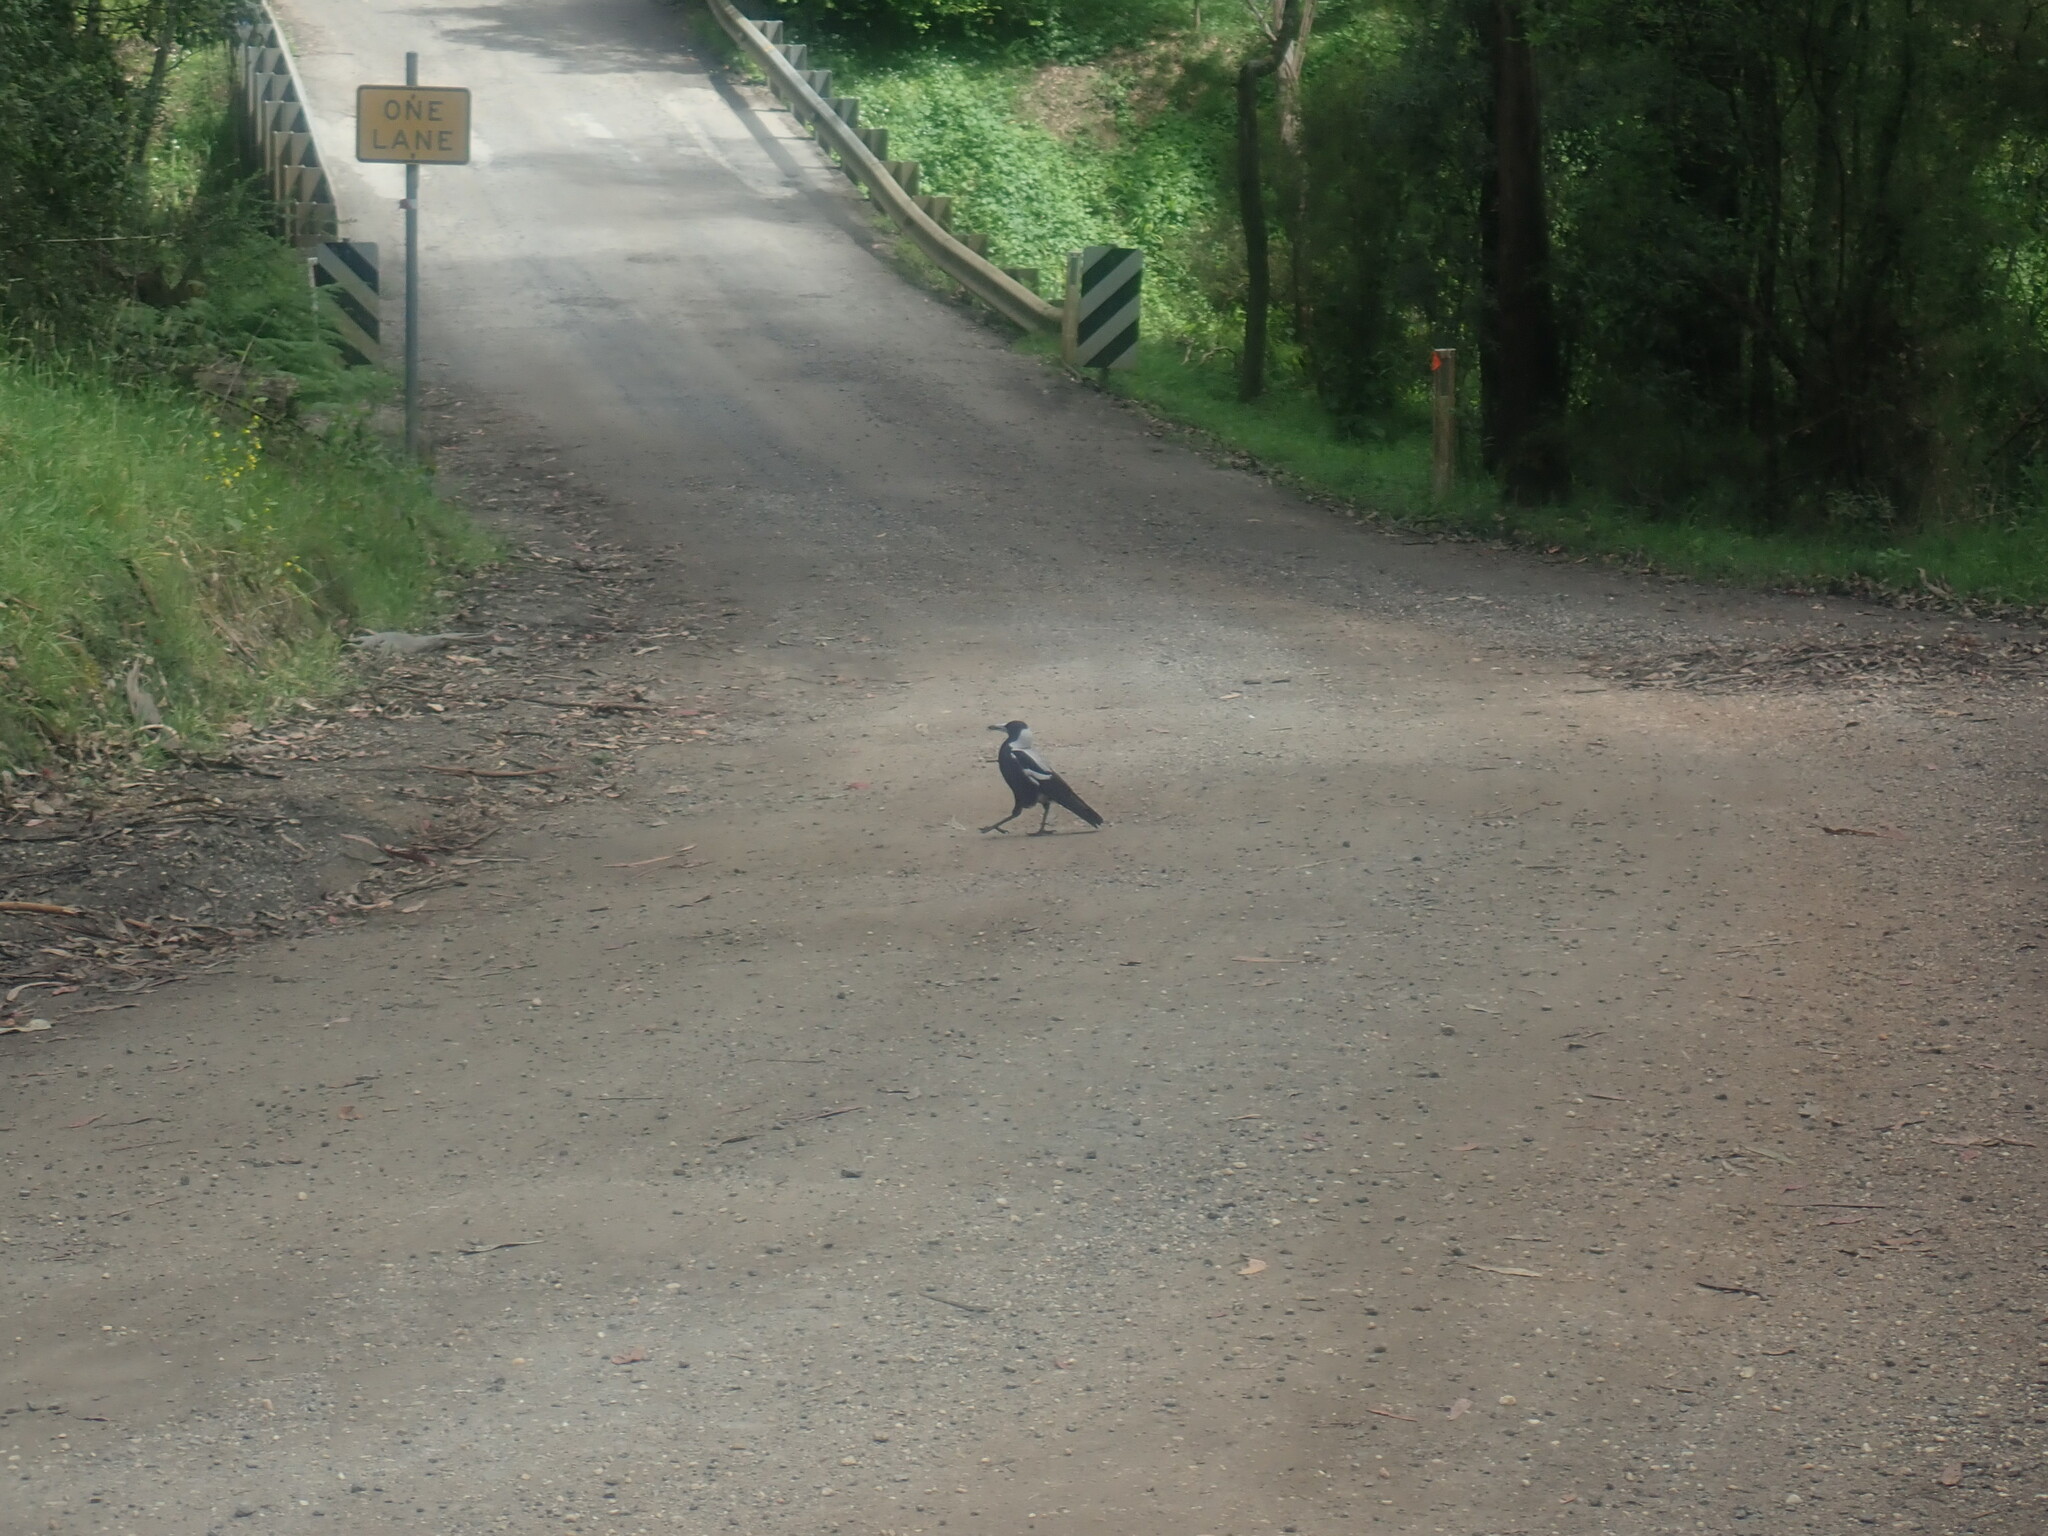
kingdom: Animalia
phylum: Chordata
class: Aves
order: Passeriformes
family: Cracticidae
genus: Gymnorhina
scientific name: Gymnorhina tibicen
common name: Australian magpie
